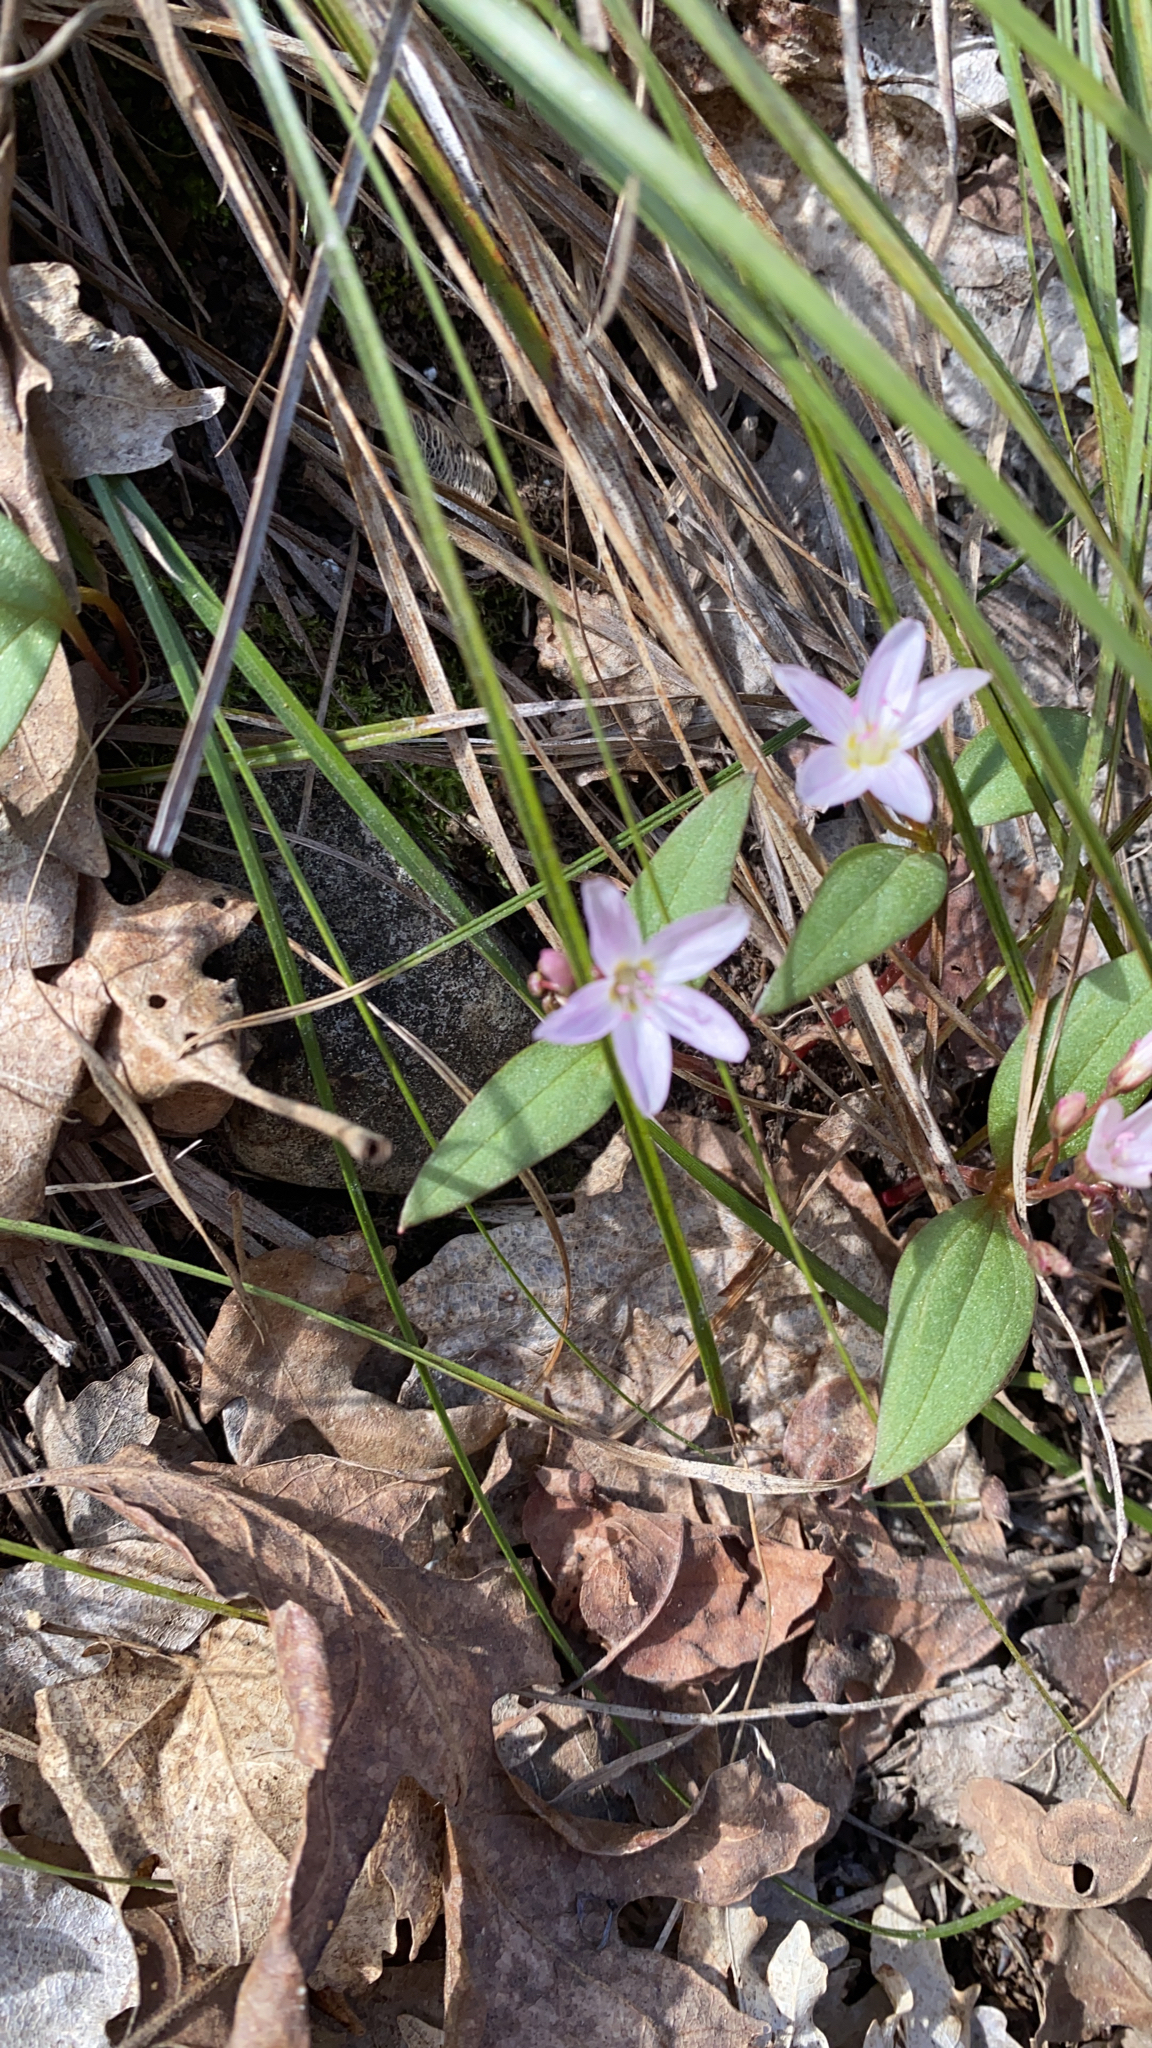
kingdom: Plantae
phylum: Tracheophyta
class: Magnoliopsida
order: Caryophyllales
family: Montiaceae
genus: Claytonia
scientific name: Claytonia lanceolata
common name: Western spring-beauty
